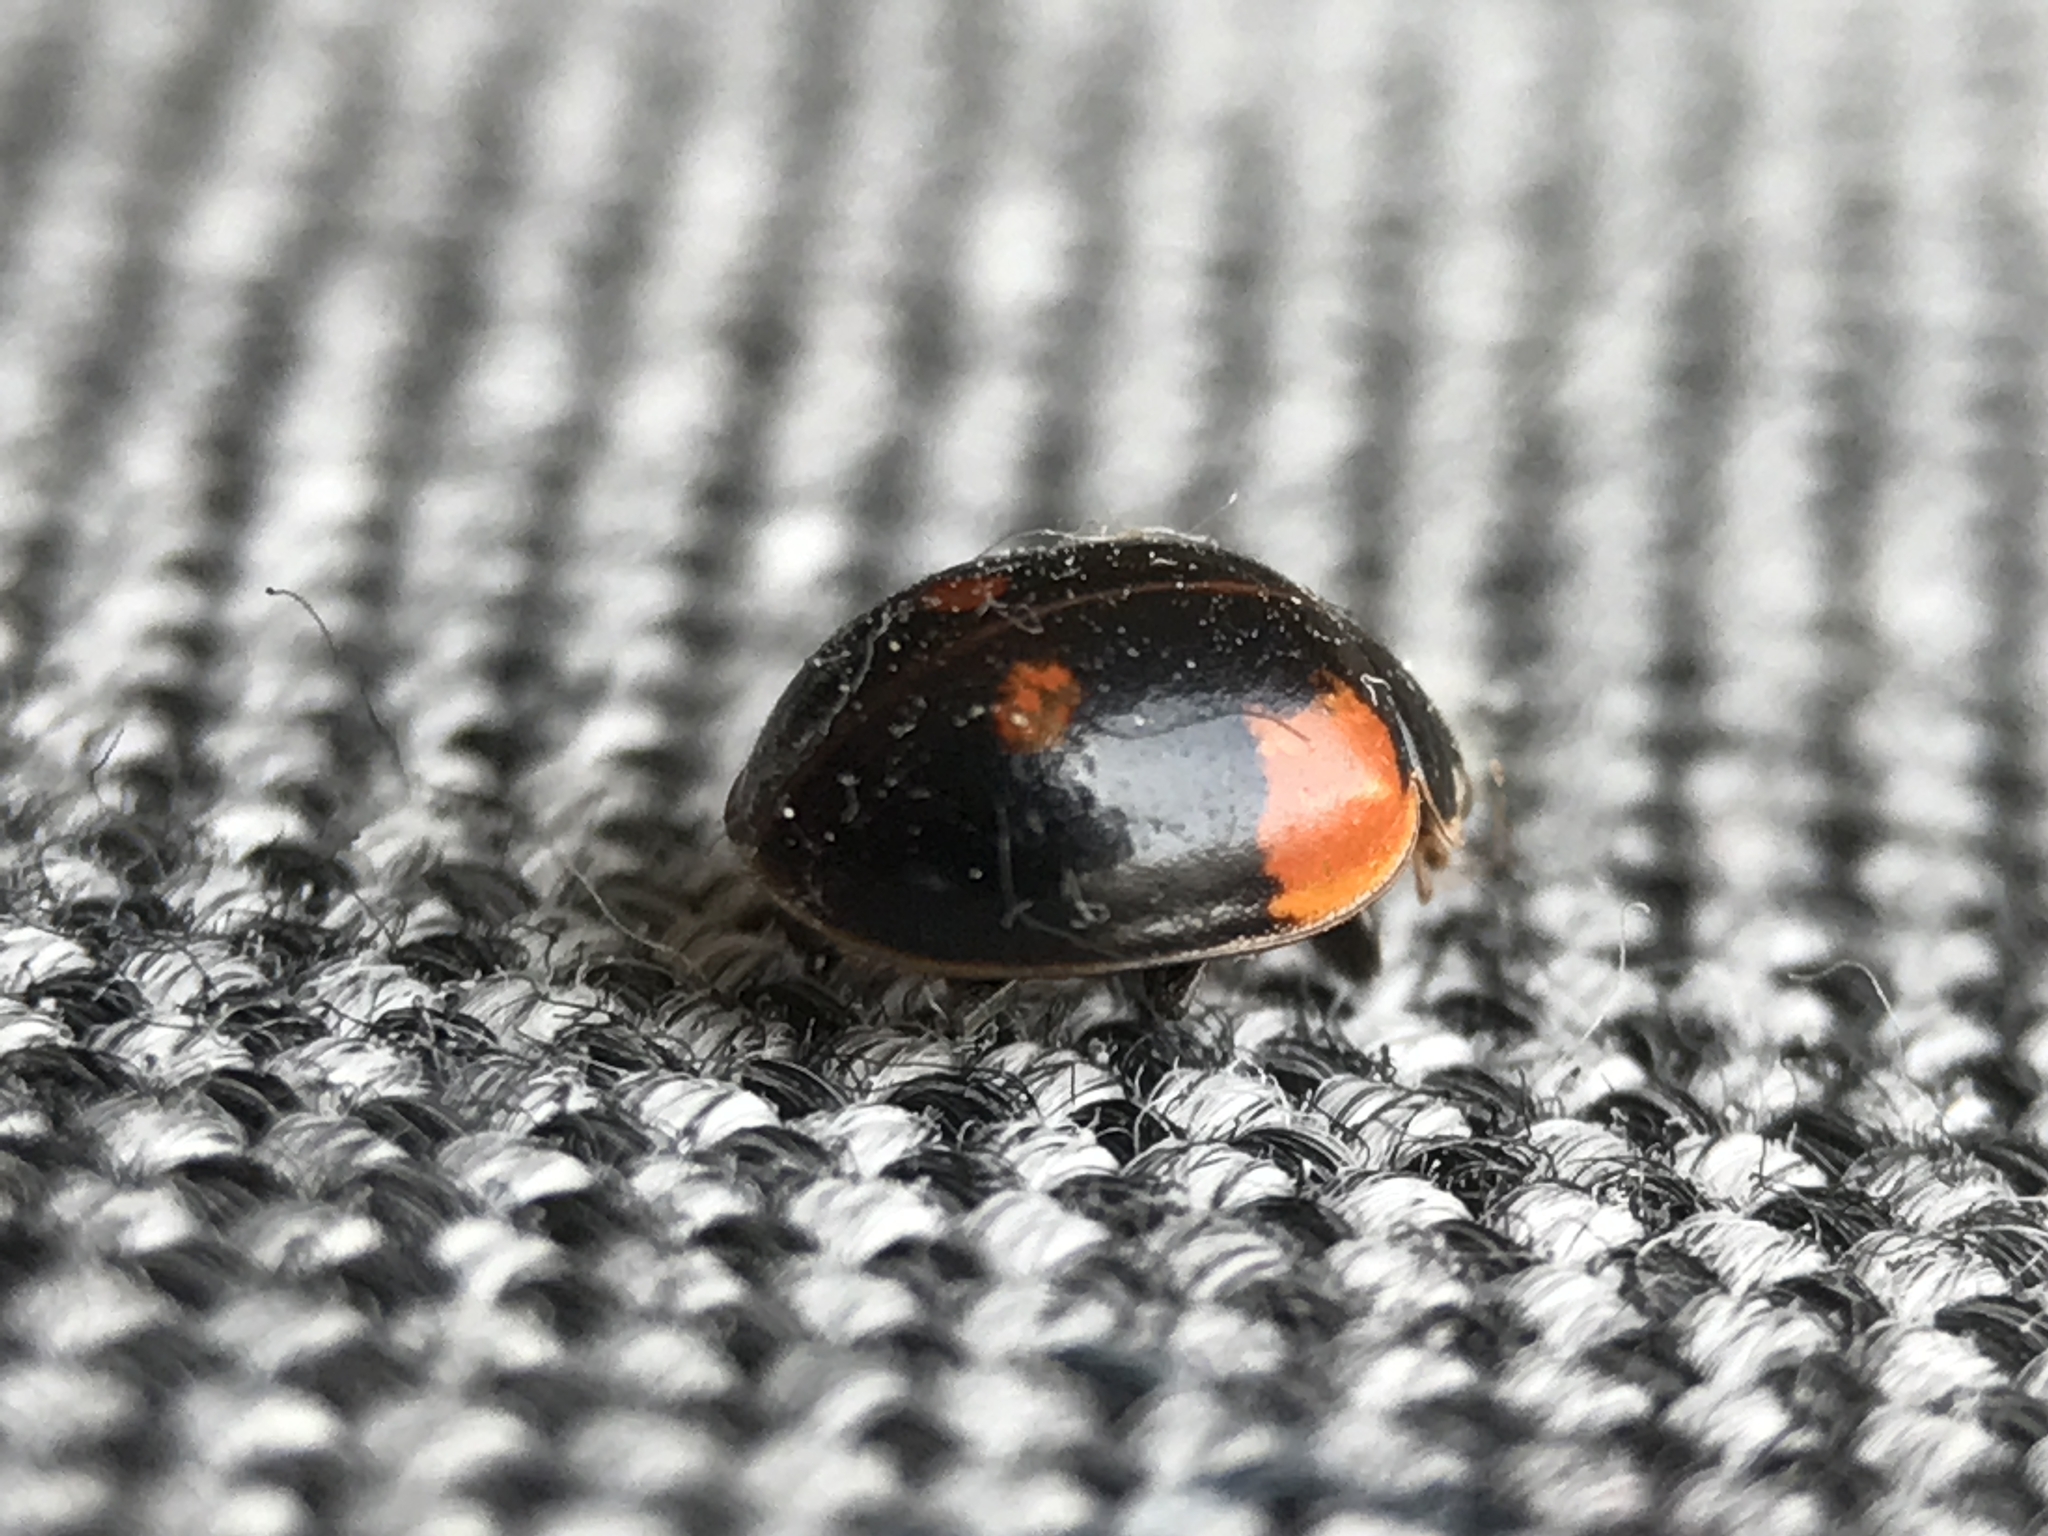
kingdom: Animalia
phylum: Arthropoda
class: Insecta
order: Coleoptera
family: Coccinellidae
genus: Adalia
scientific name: Adalia bipunctata
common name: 2-spot ladybird
